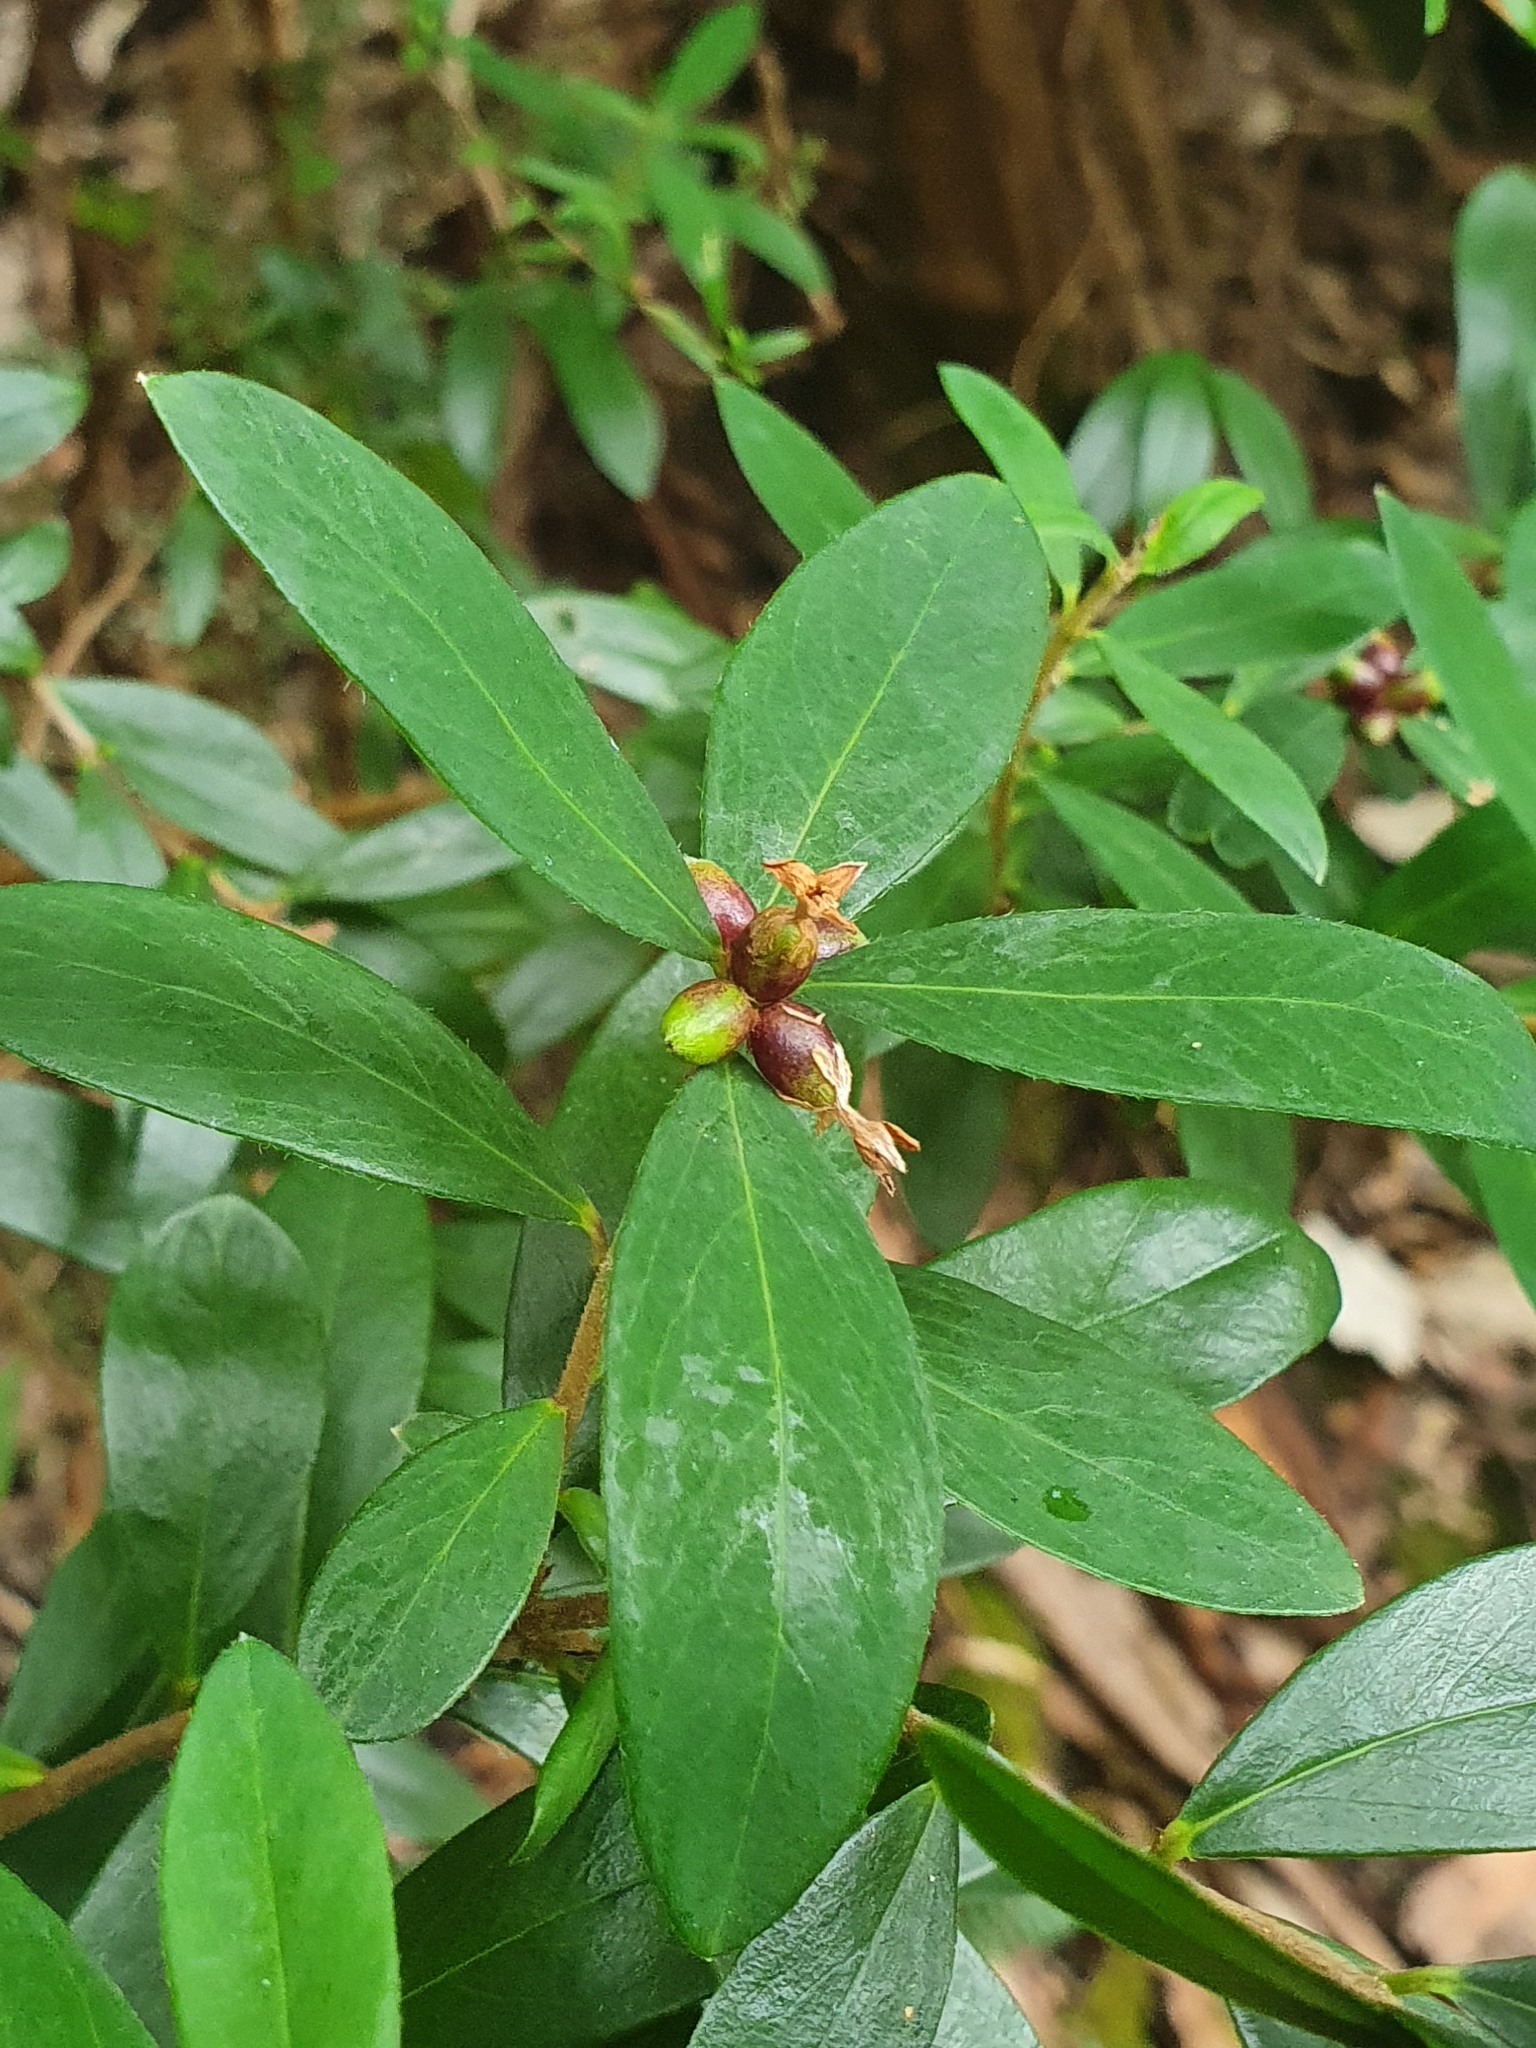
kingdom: Plantae
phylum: Tracheophyta
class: Magnoliopsida
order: Malvales
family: Thymelaeaceae
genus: Pimelea
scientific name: Pimelea drupacea
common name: Cherry riceflower
